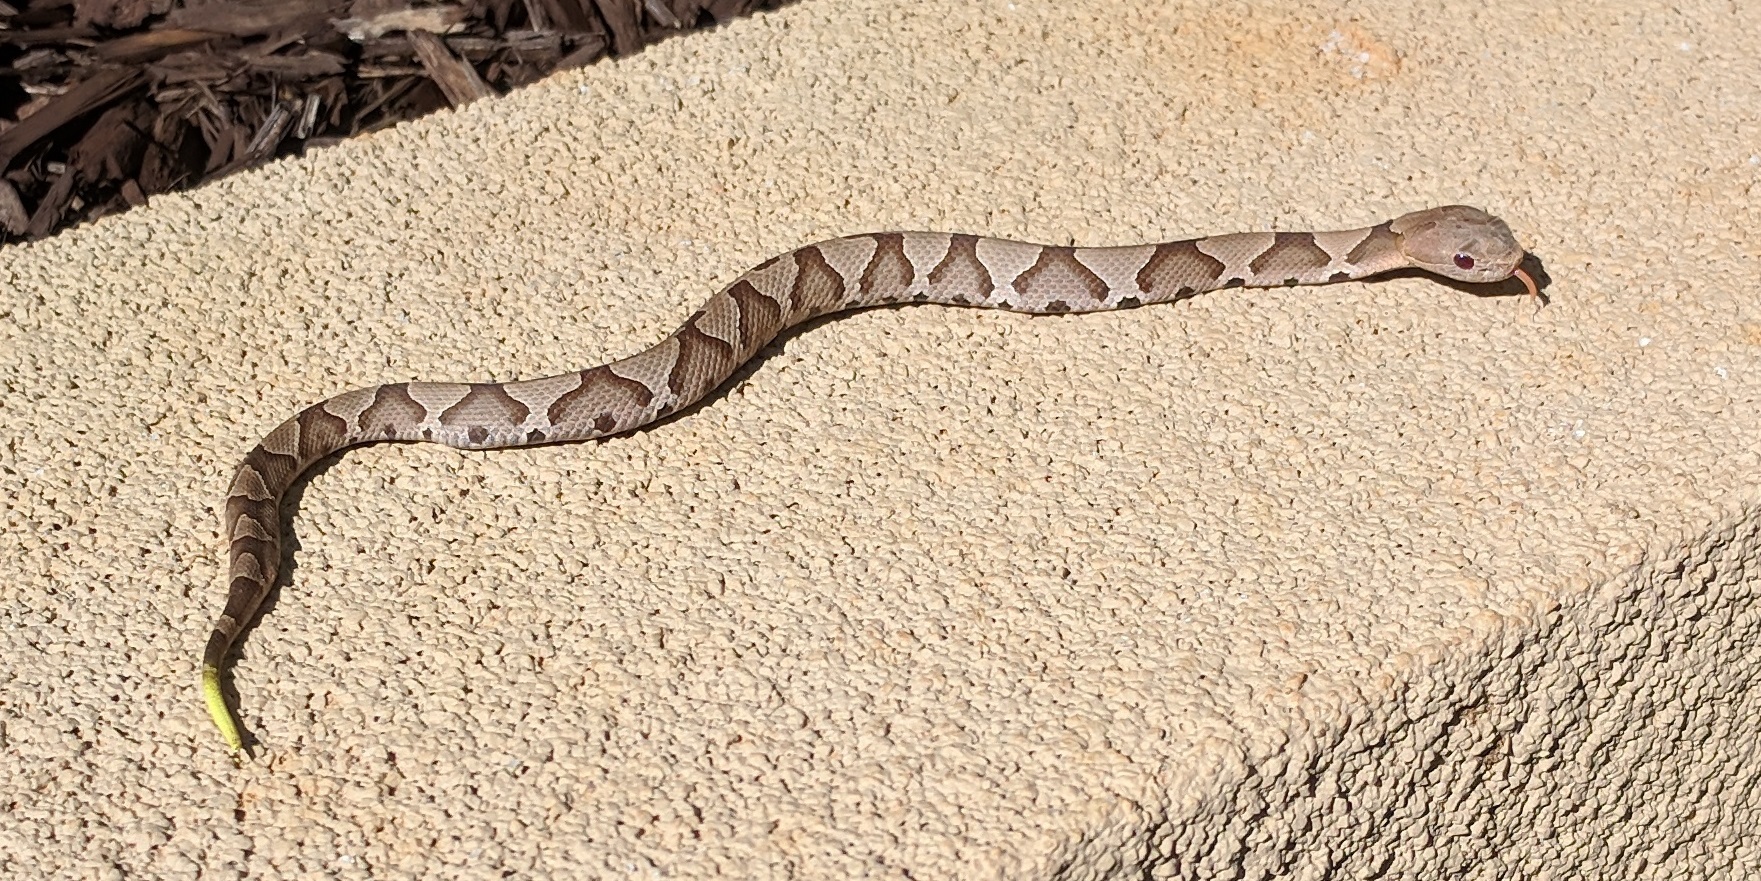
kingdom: Animalia
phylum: Chordata
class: Squamata
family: Viperidae
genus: Agkistrodon
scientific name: Agkistrodon contortrix
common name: Northern copperhead
